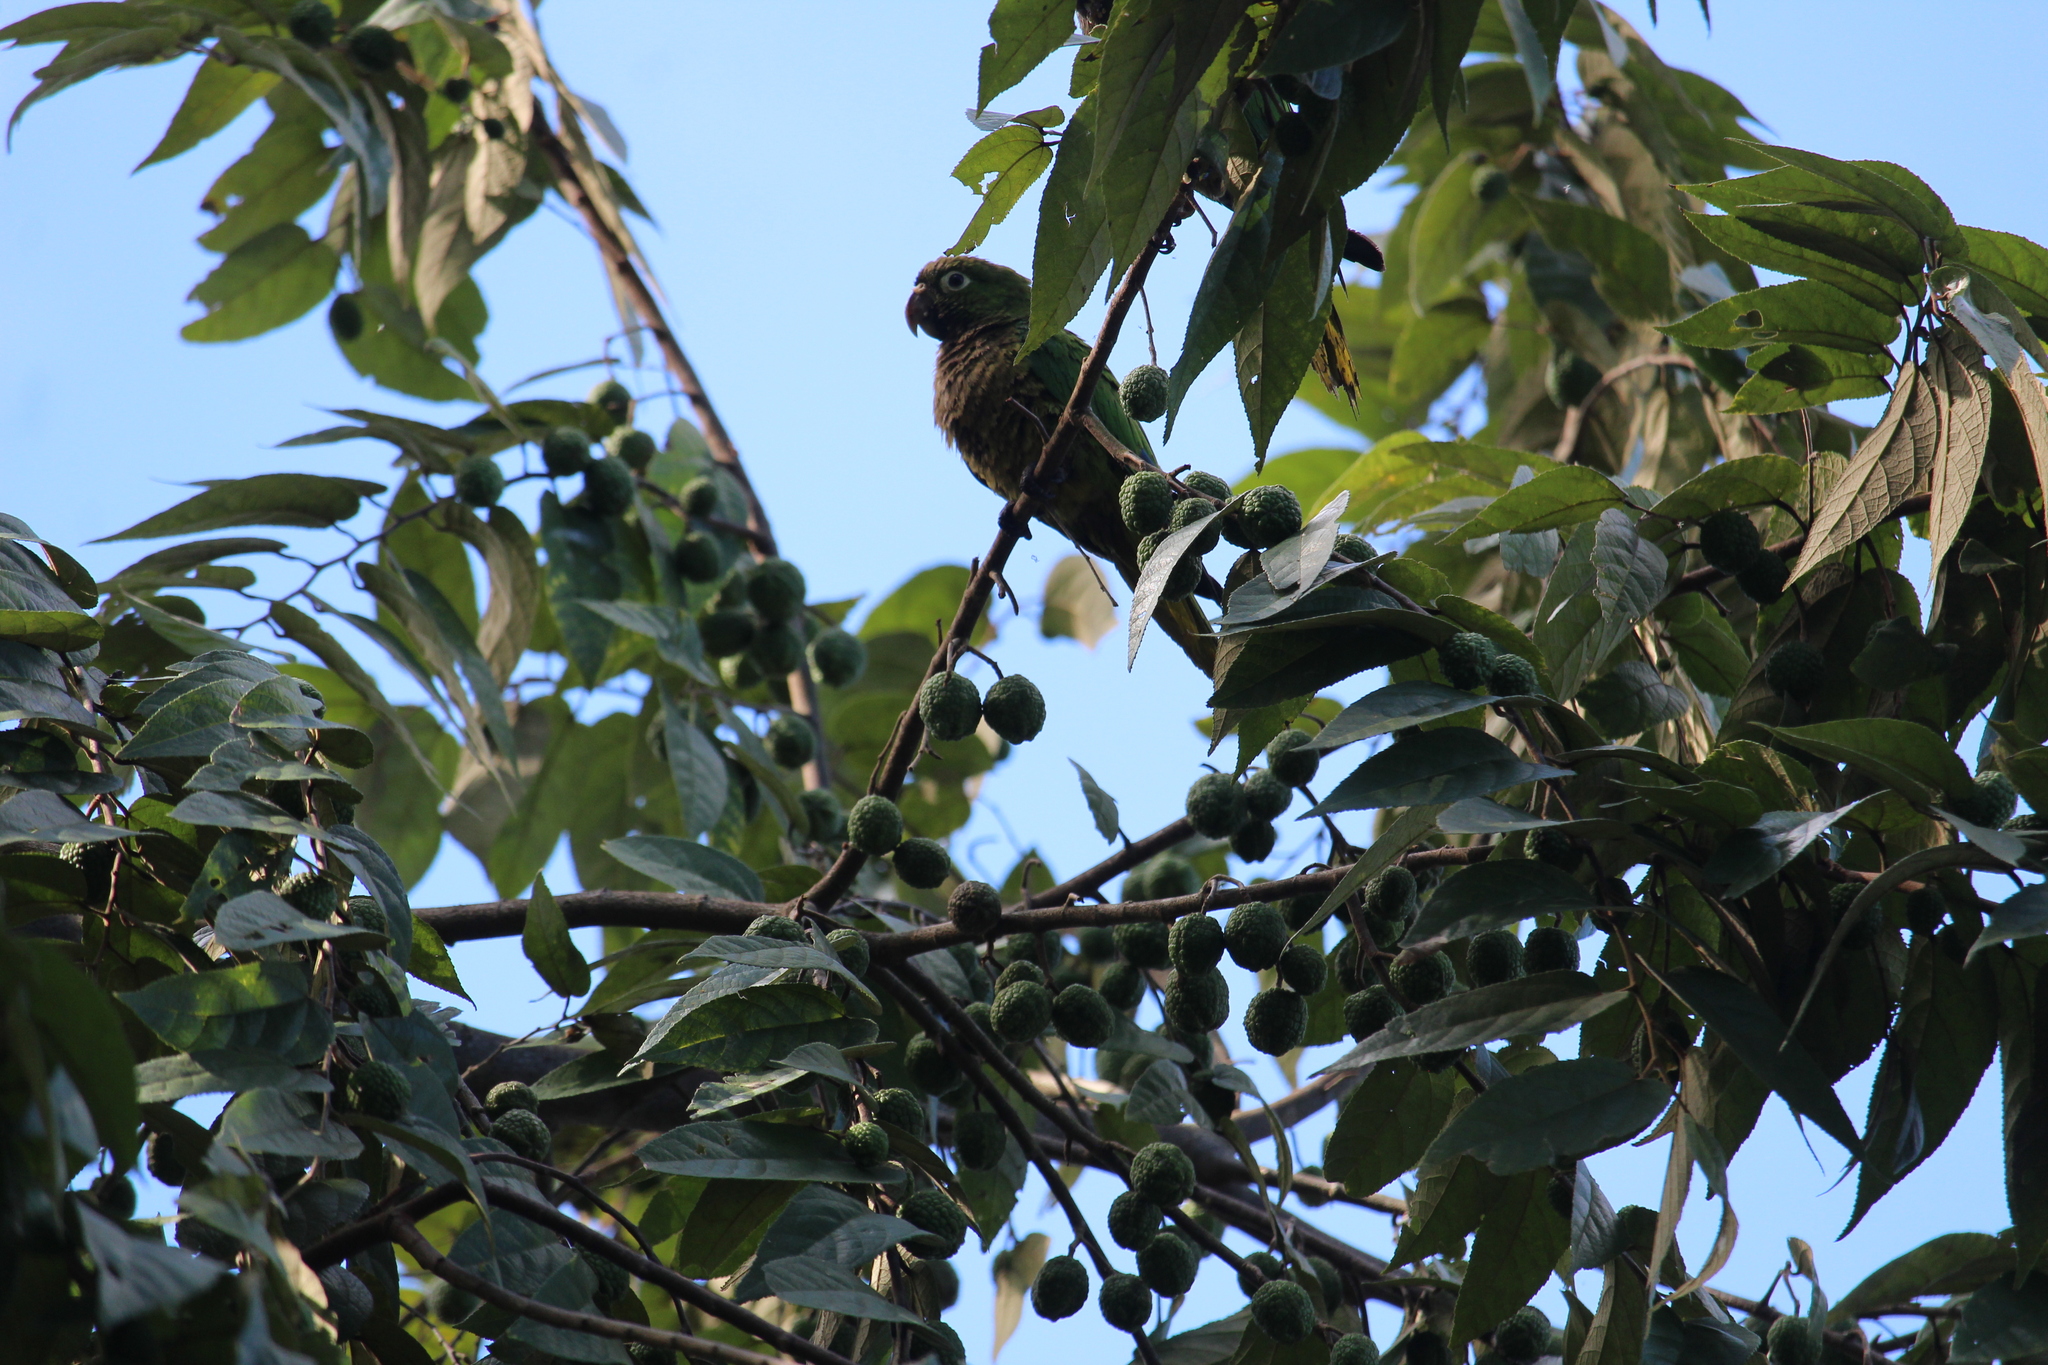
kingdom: Animalia
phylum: Chordata
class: Aves
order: Psittaciformes
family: Psittacidae
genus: Aratinga
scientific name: Aratinga nana
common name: Olive-throated parakeet
